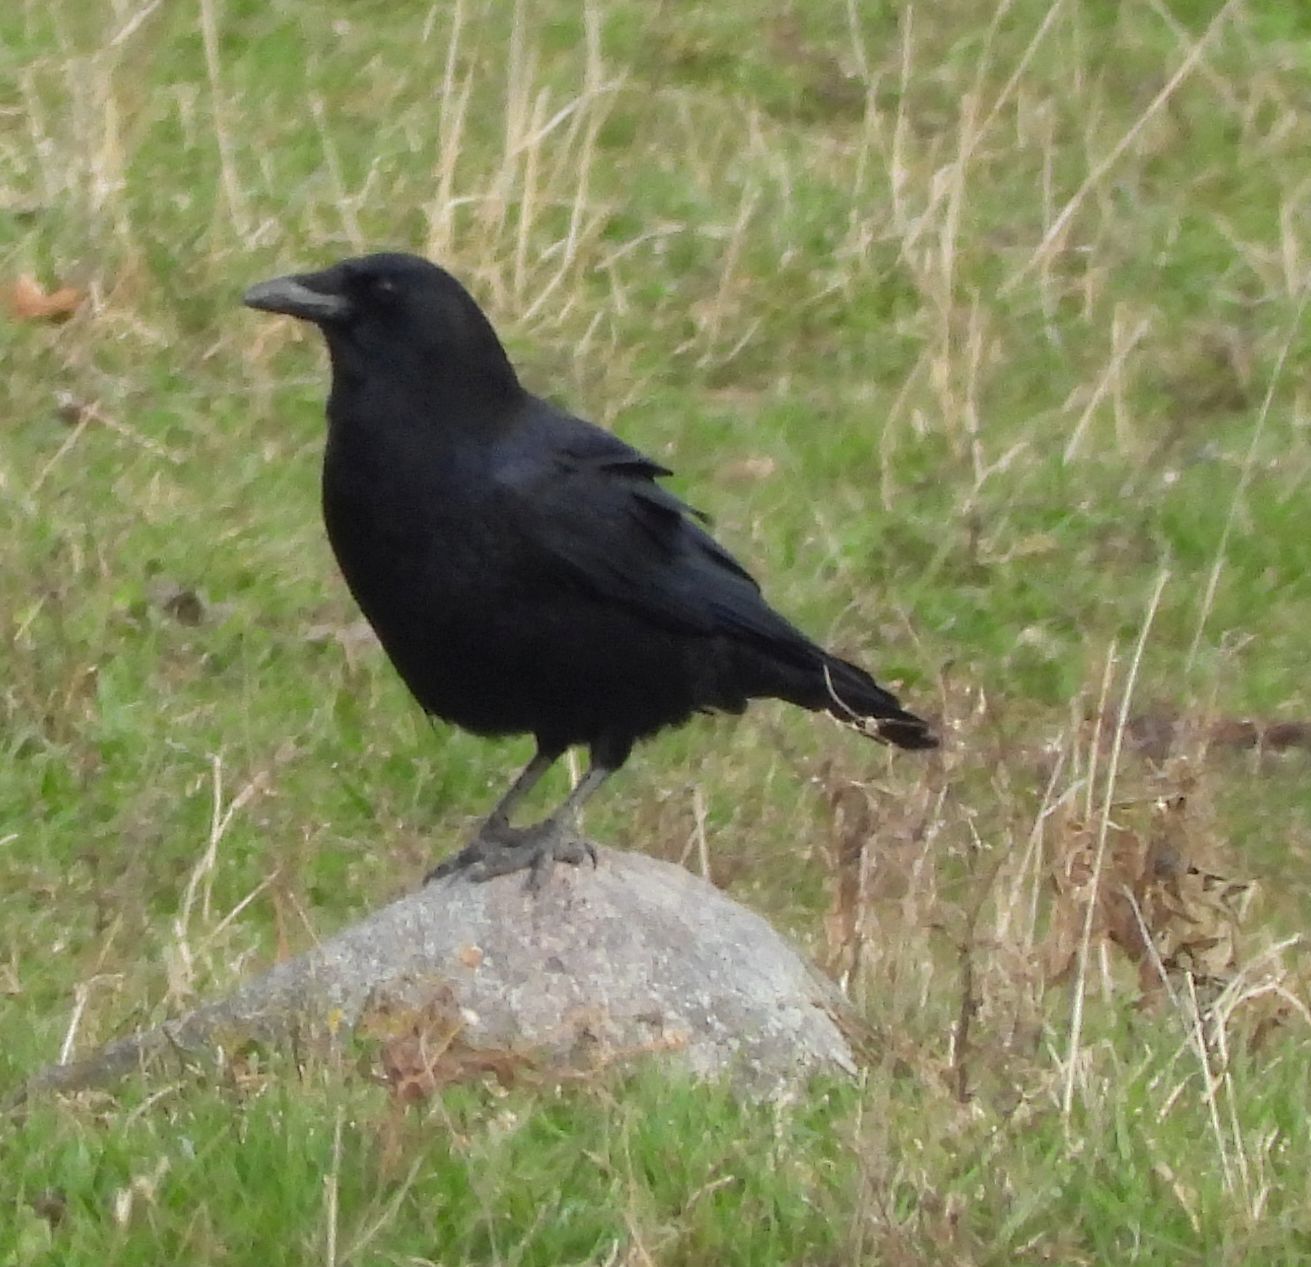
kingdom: Animalia
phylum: Chordata
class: Aves
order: Passeriformes
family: Corvidae
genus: Corvus
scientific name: Corvus brachyrhynchos
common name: American crow
